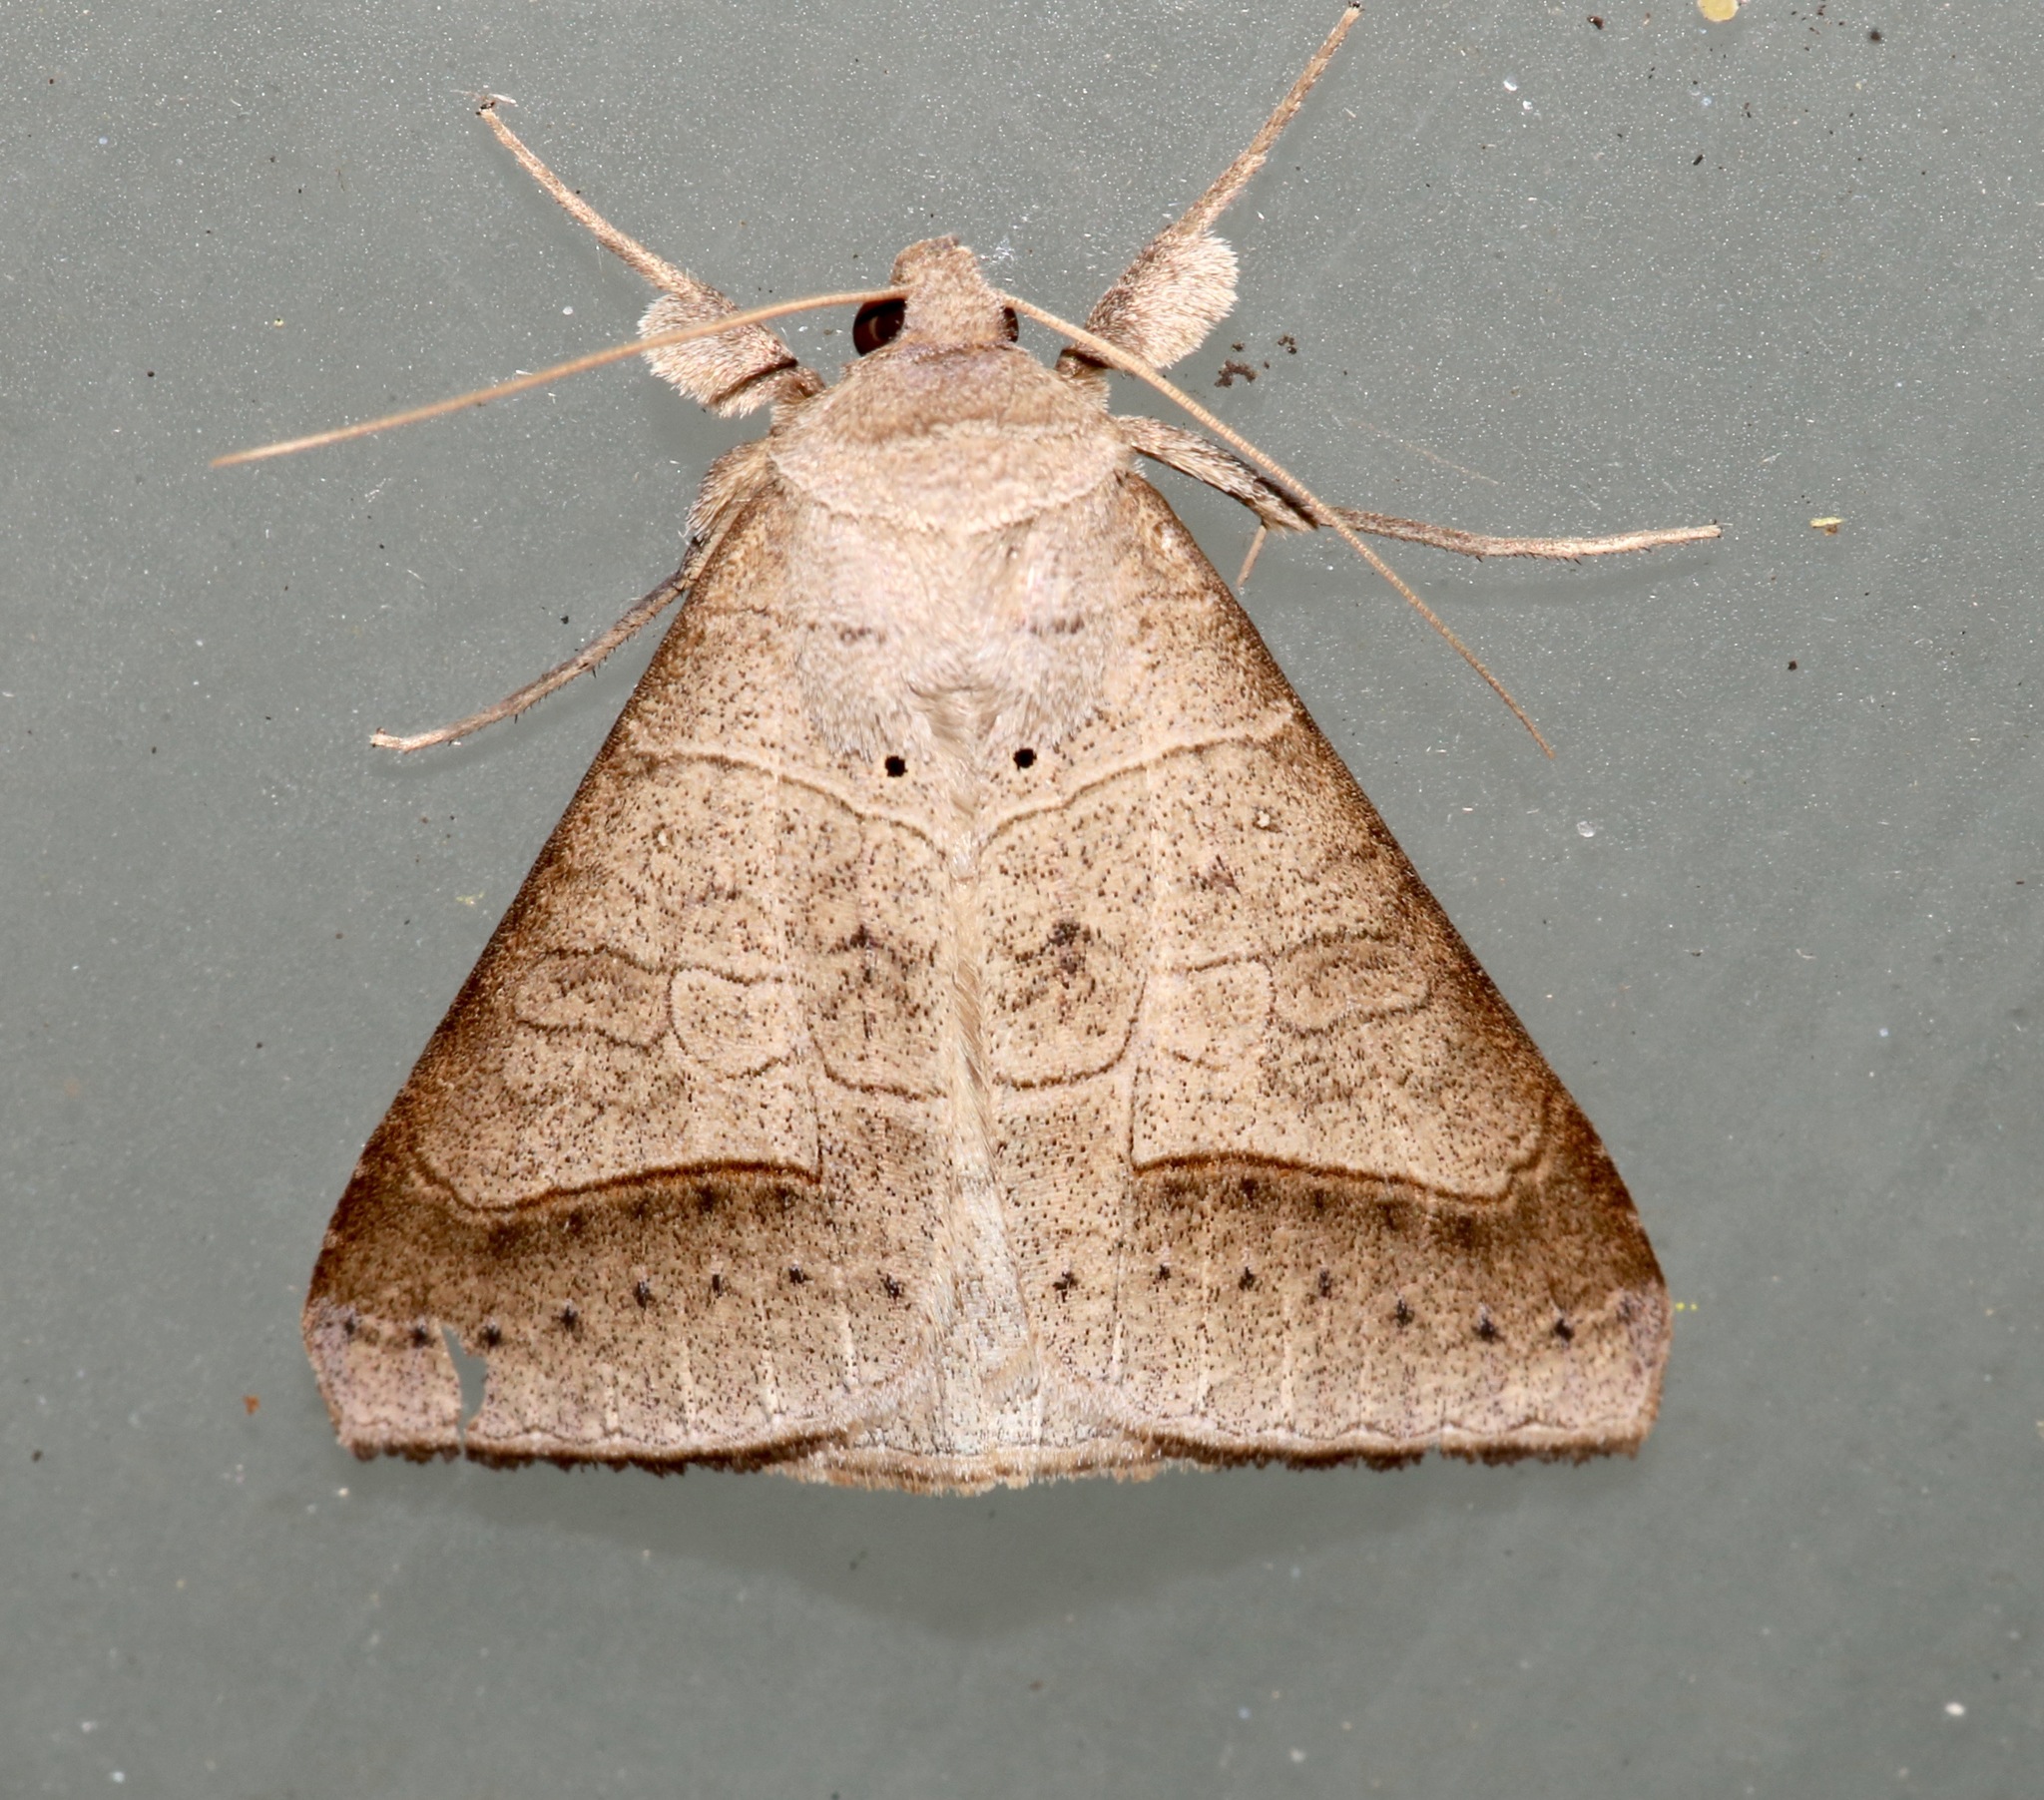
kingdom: Animalia
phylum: Arthropoda
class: Insecta
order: Lepidoptera
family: Erebidae
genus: Mocis
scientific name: Mocis marcida
